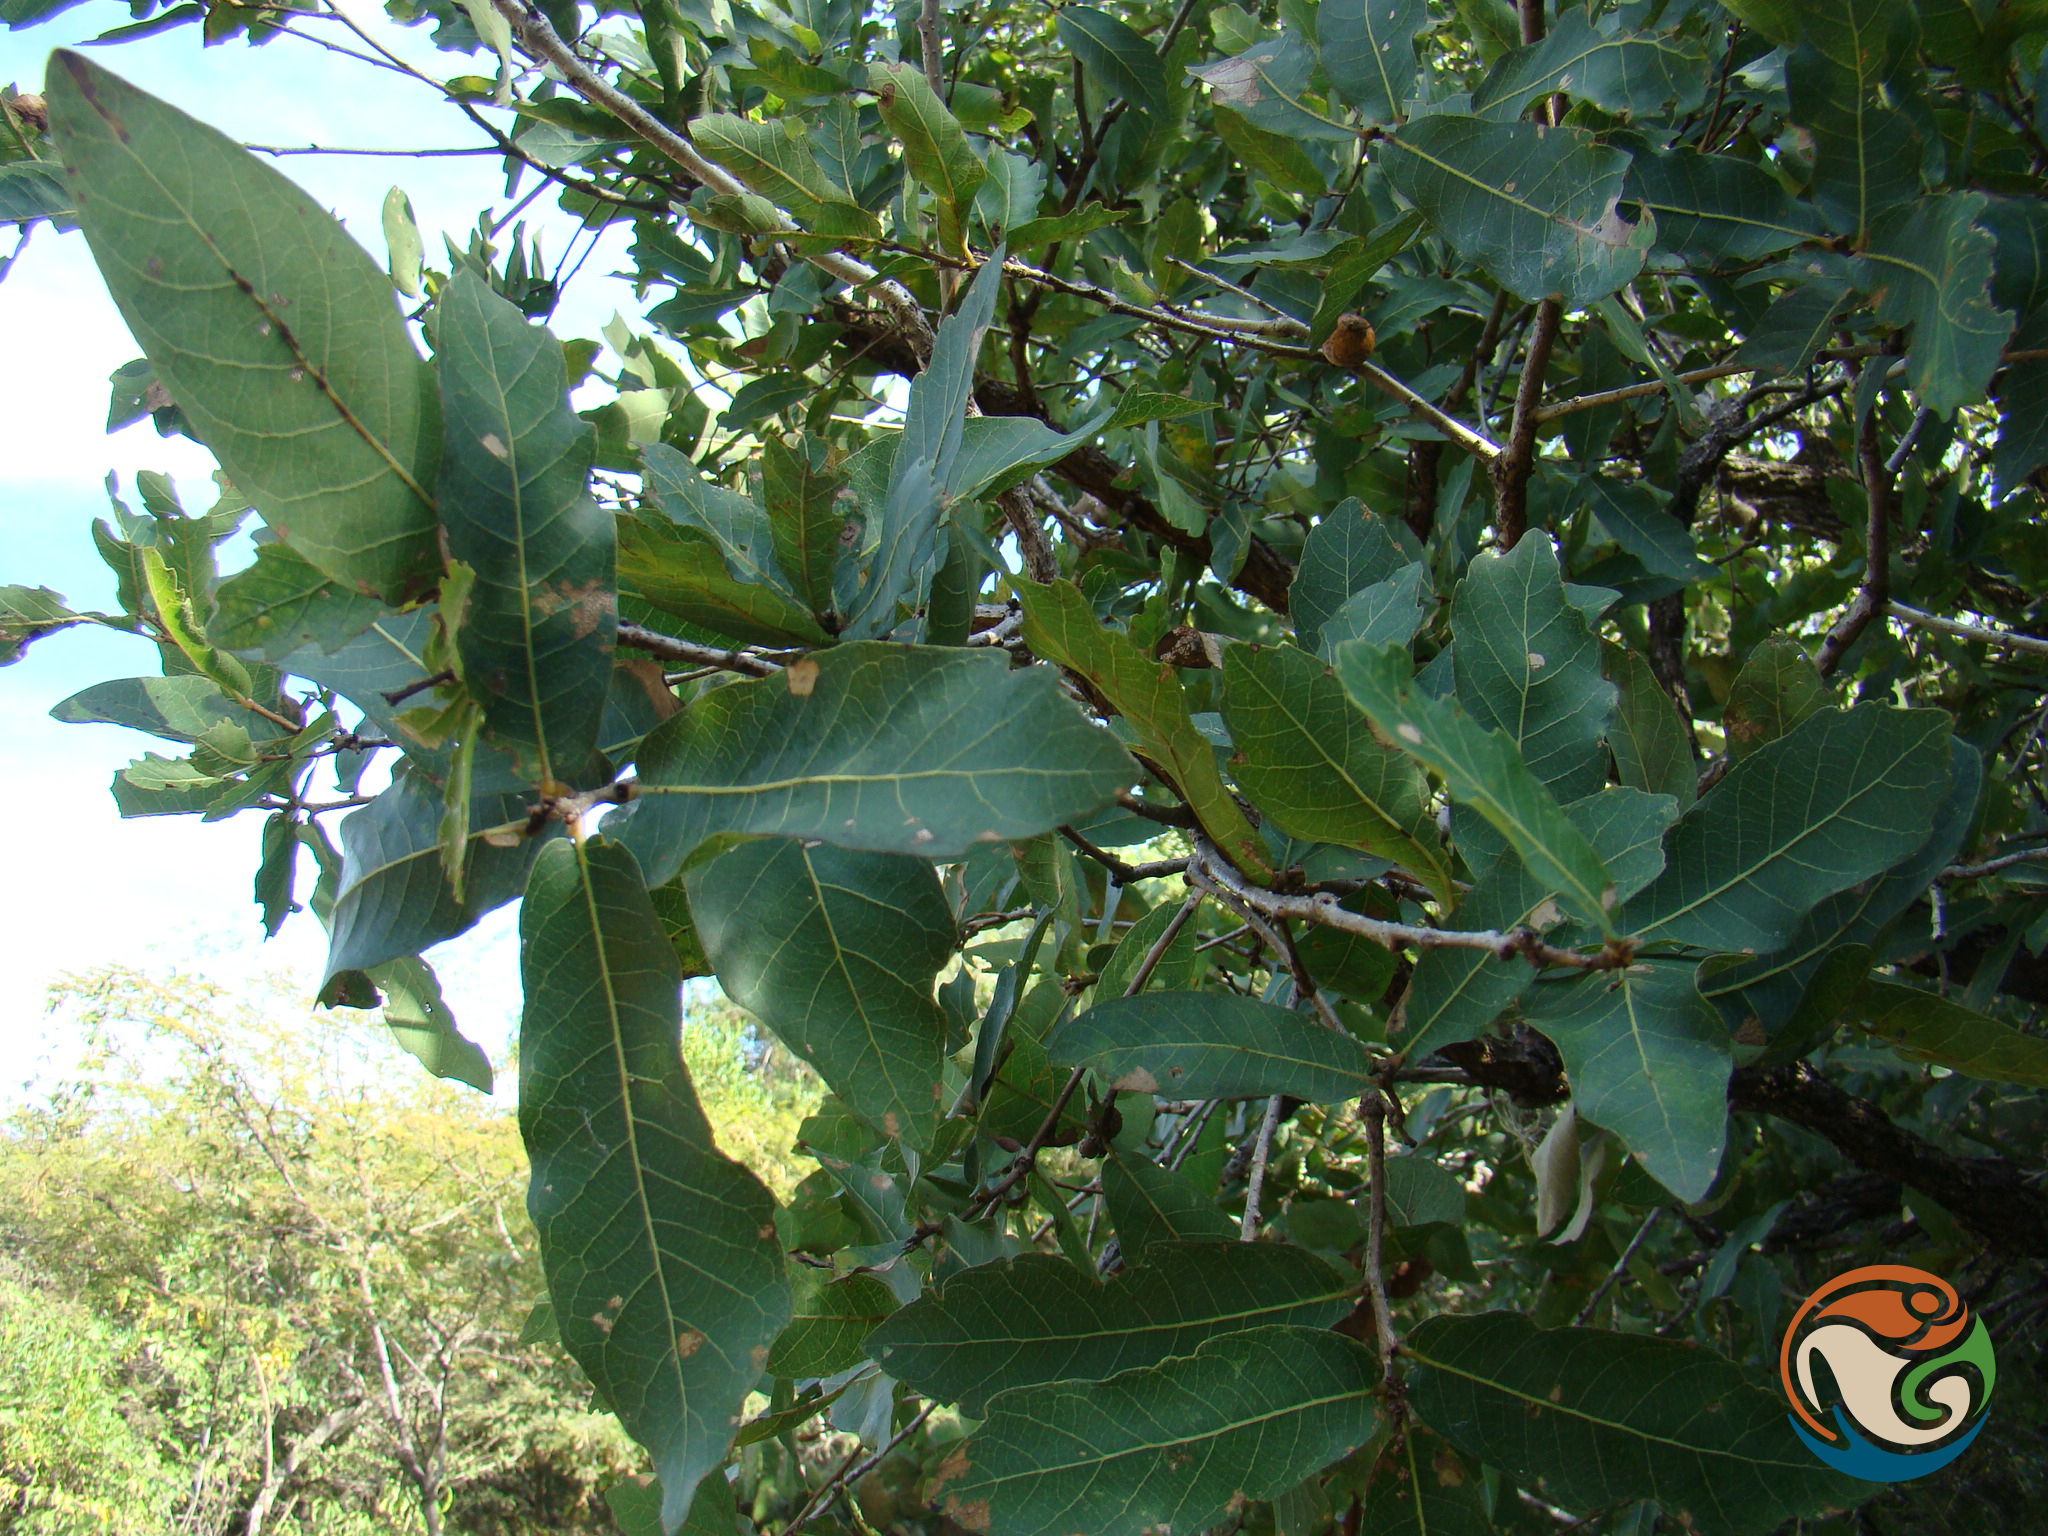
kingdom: Plantae
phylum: Tracheophyta
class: Magnoliopsida
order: Fagales
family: Fagaceae
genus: Quercus
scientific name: Quercus glaucoides
